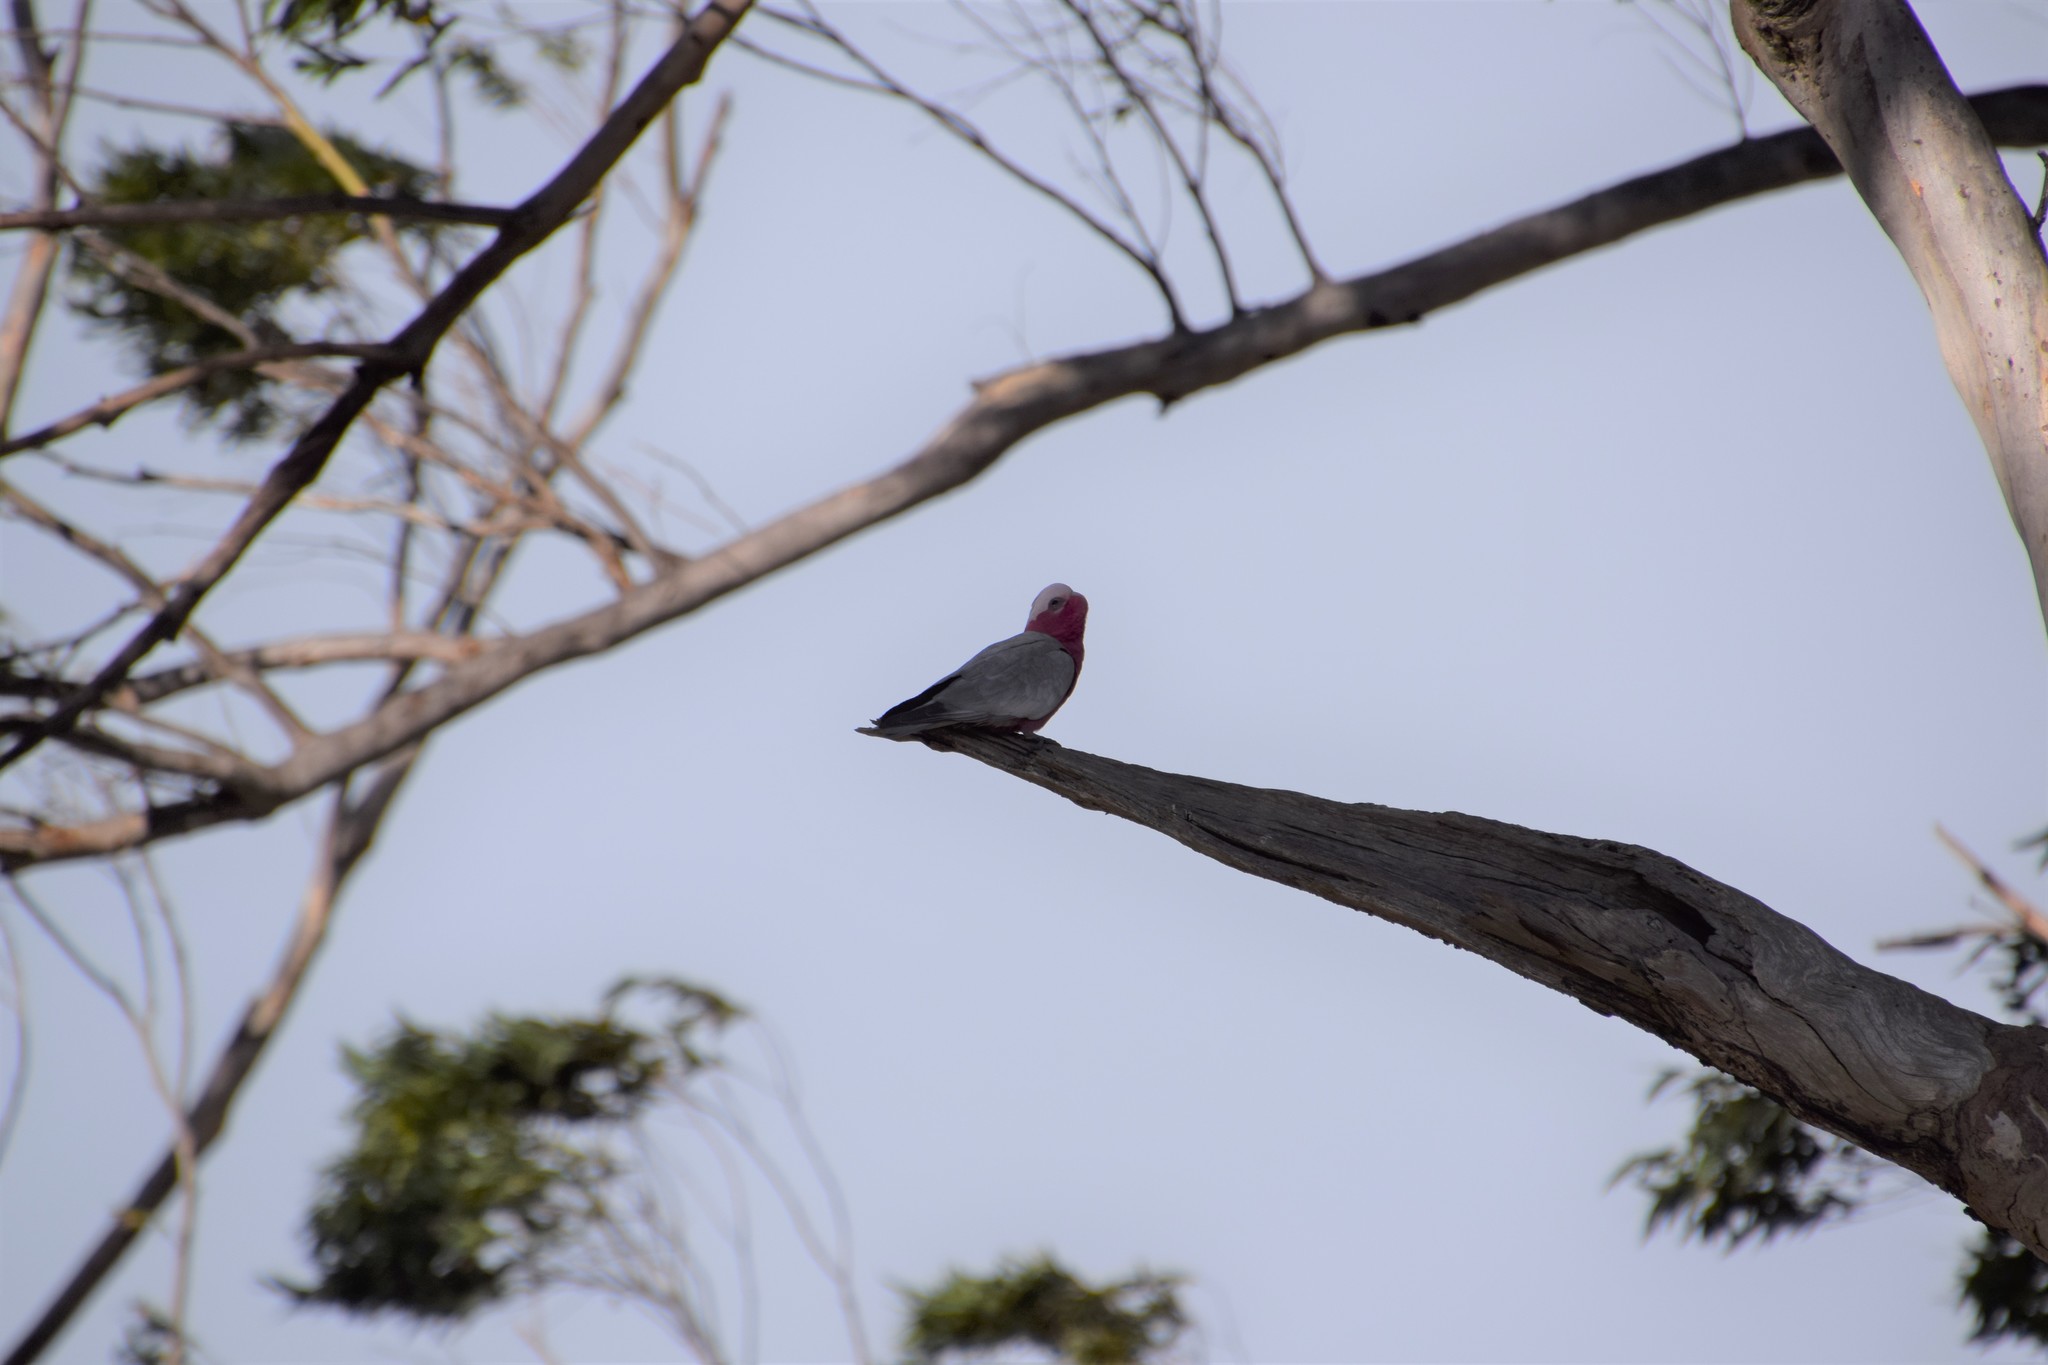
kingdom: Animalia
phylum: Chordata
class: Aves
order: Psittaciformes
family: Psittacidae
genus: Eolophus
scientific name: Eolophus roseicapilla
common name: Galah
